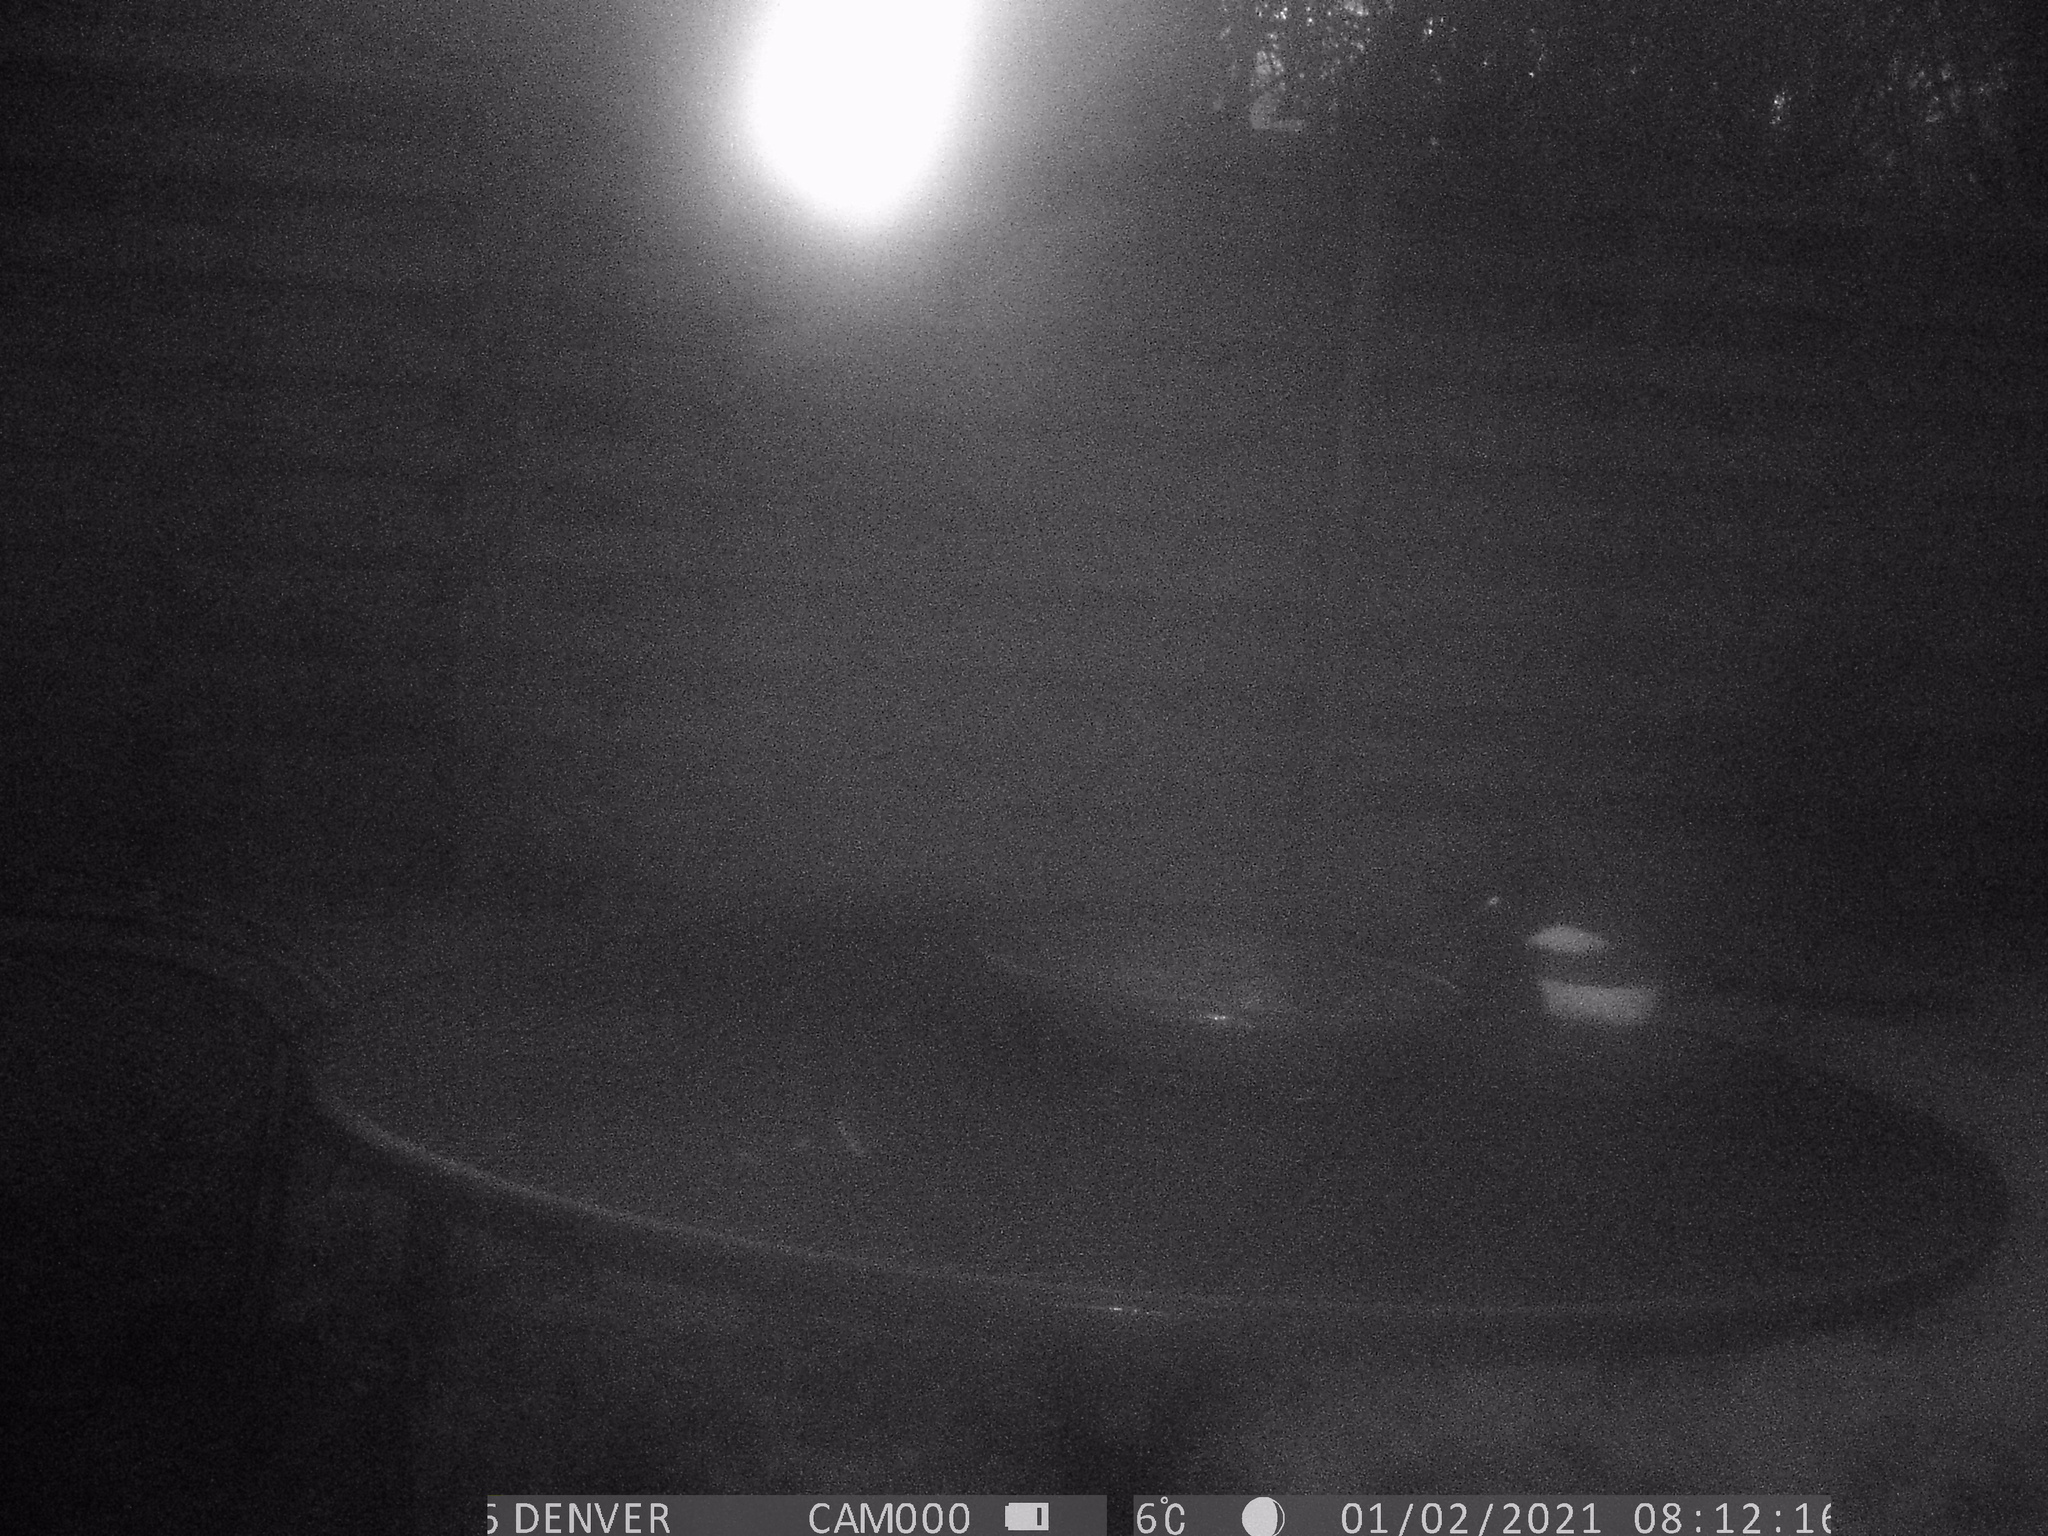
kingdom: Animalia
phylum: Chordata
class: Aves
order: Passeriformes
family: Corvidae
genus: Pica
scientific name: Pica pica
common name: Eurasian magpie
